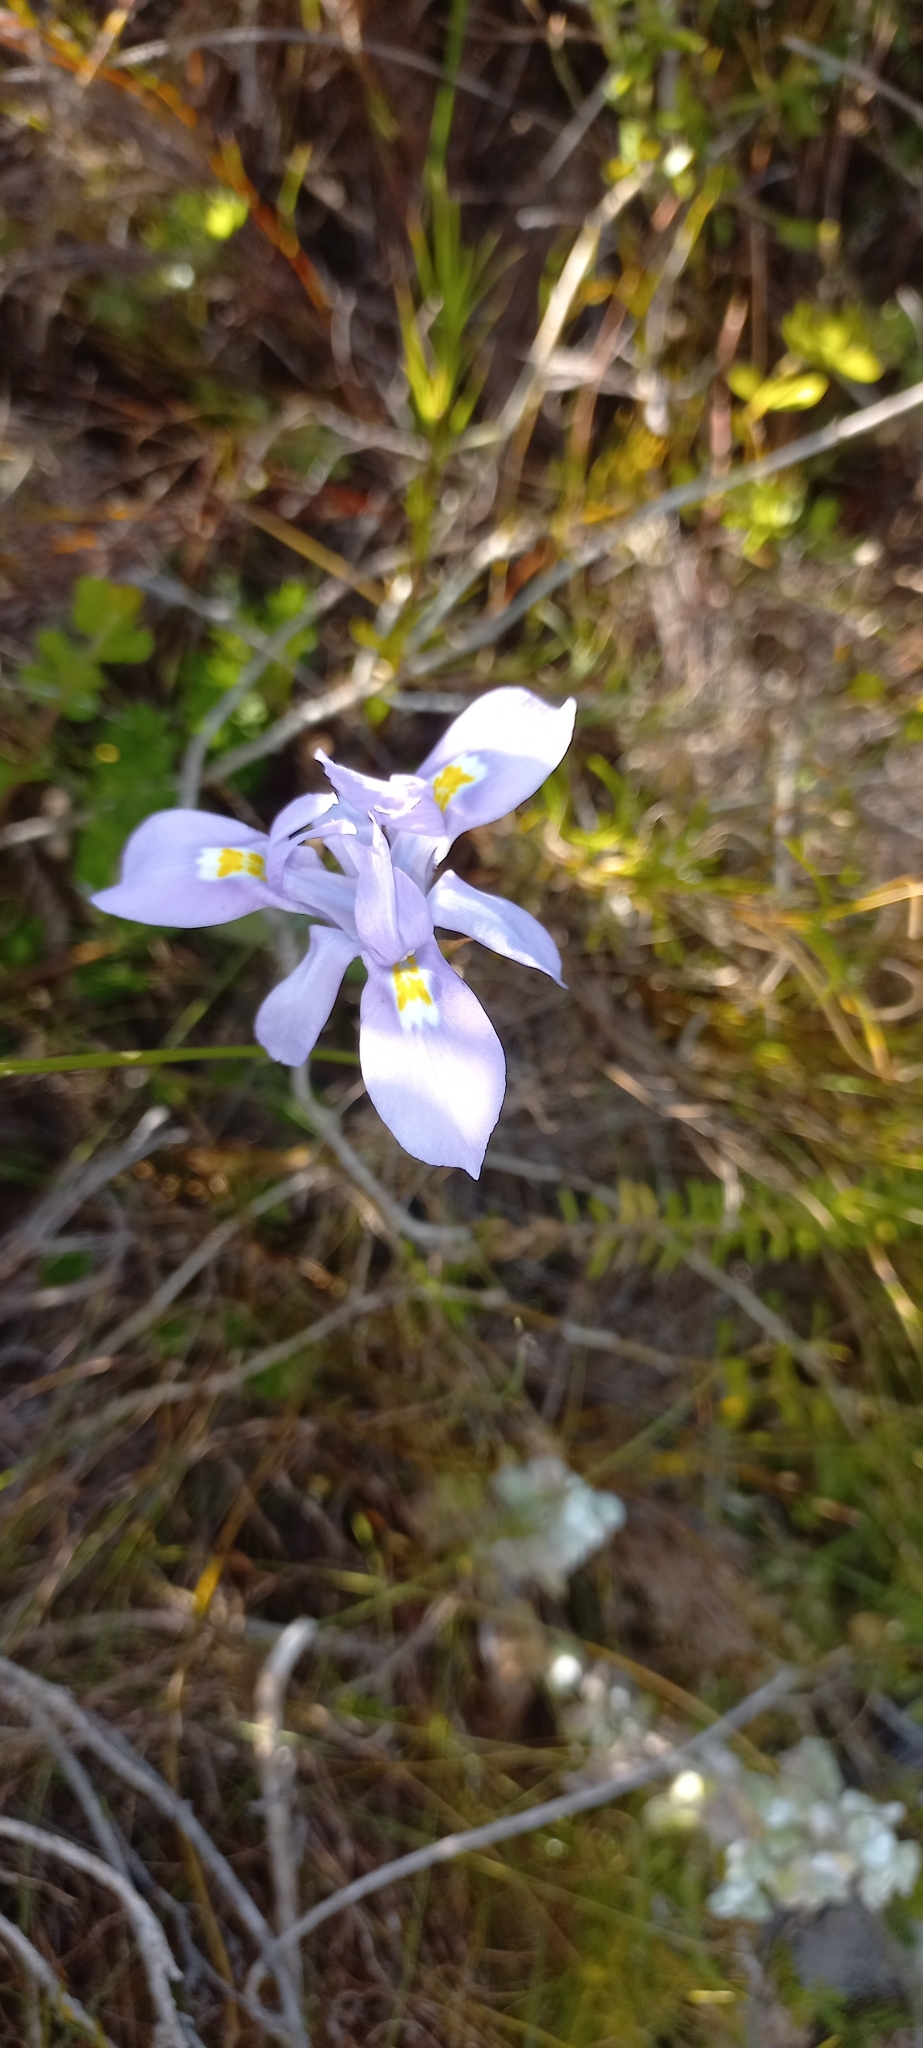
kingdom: Plantae
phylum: Tracheophyta
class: Liliopsida
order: Asparagales
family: Iridaceae
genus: Moraea
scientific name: Moraea fugax
